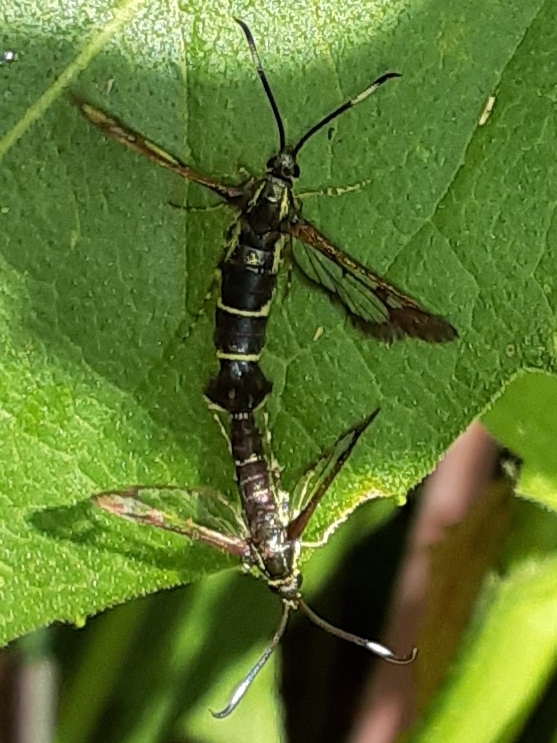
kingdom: Animalia
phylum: Arthropoda
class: Insecta
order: Lepidoptera
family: Sesiidae
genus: Carmenta
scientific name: Carmenta ithacae
